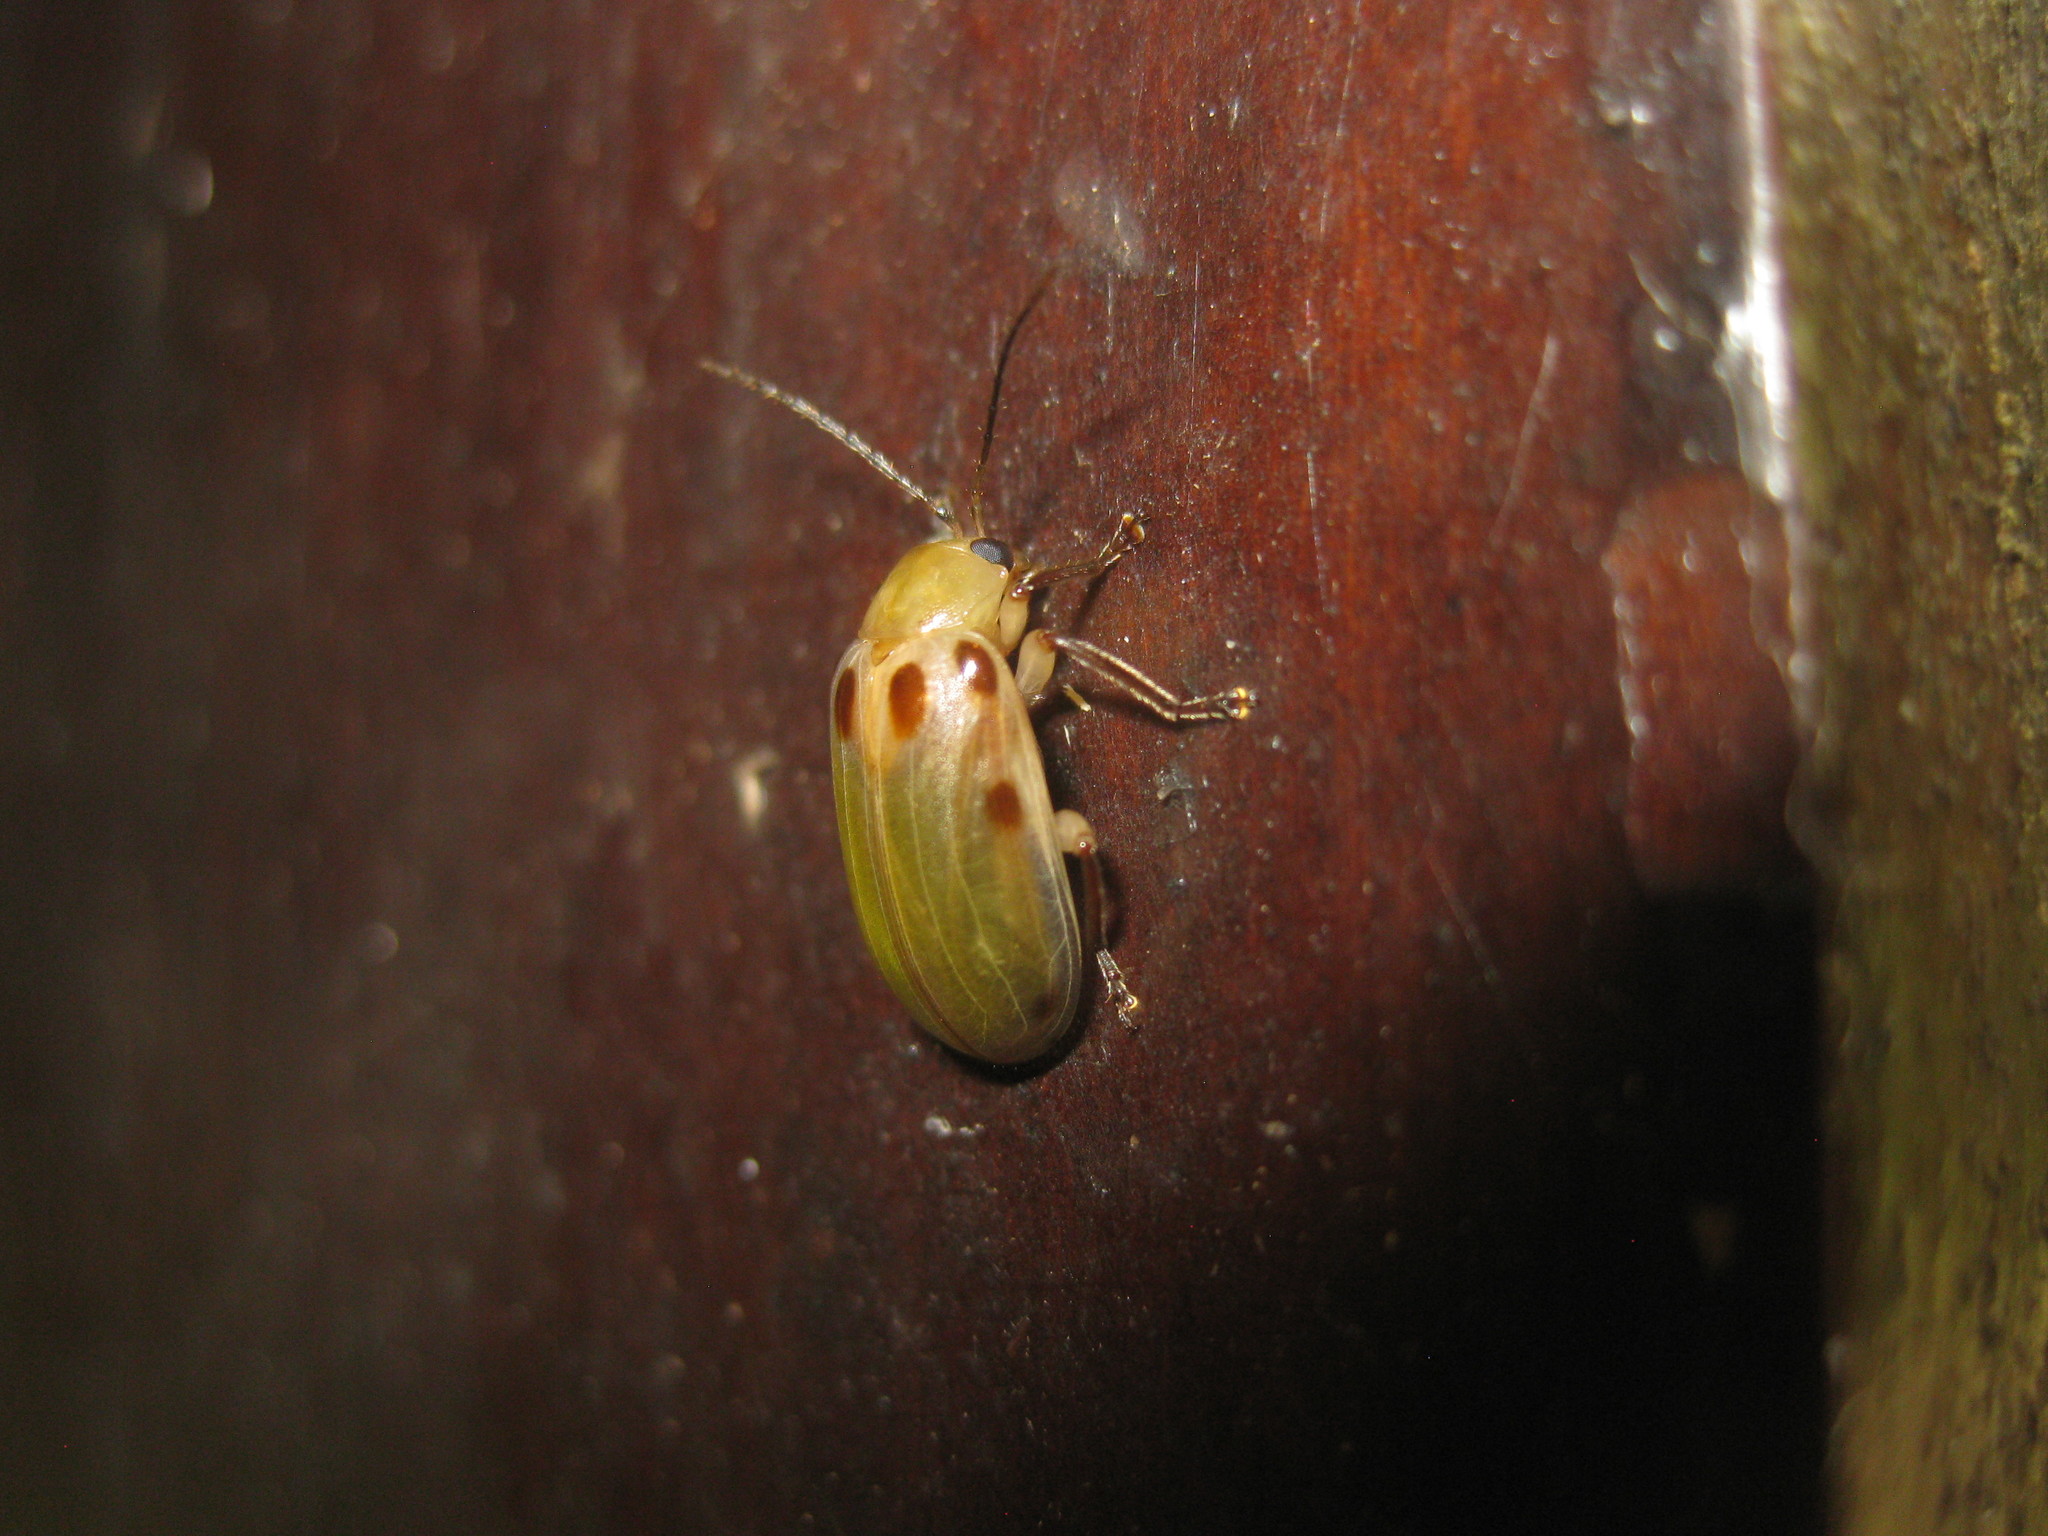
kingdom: Animalia
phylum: Arthropoda
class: Insecta
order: Coleoptera
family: Chrysomelidae
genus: Exora
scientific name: Exora obsoleta
